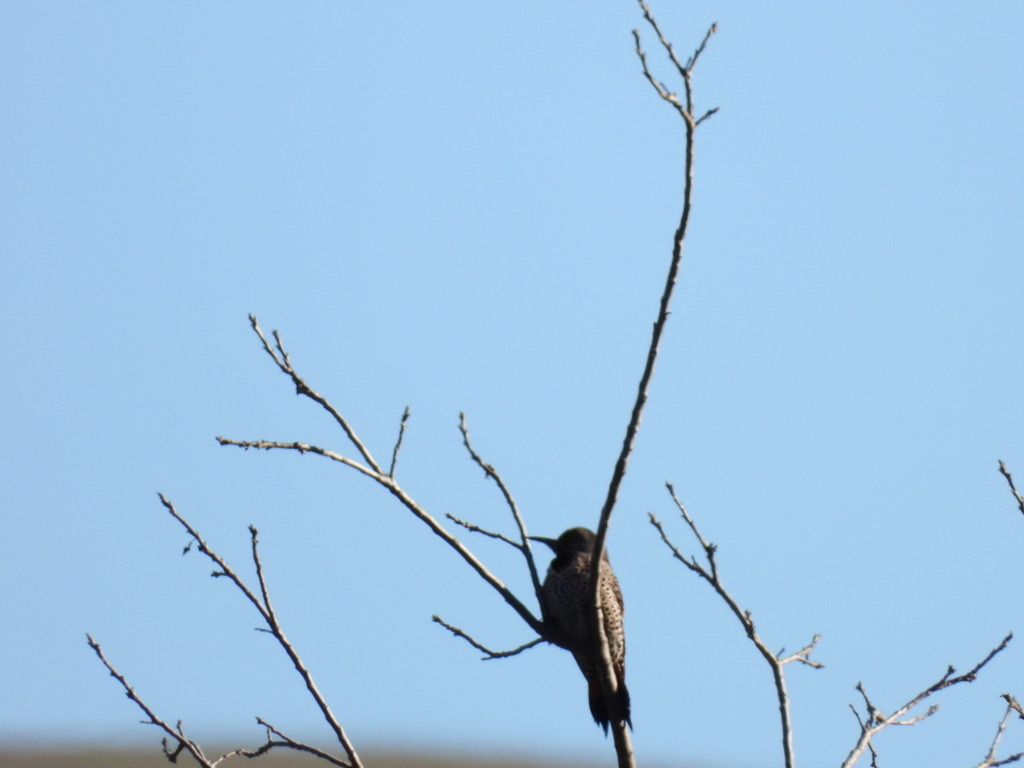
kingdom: Animalia
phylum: Chordata
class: Aves
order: Piciformes
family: Picidae
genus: Colaptes
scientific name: Colaptes auratus
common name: Northern flicker
